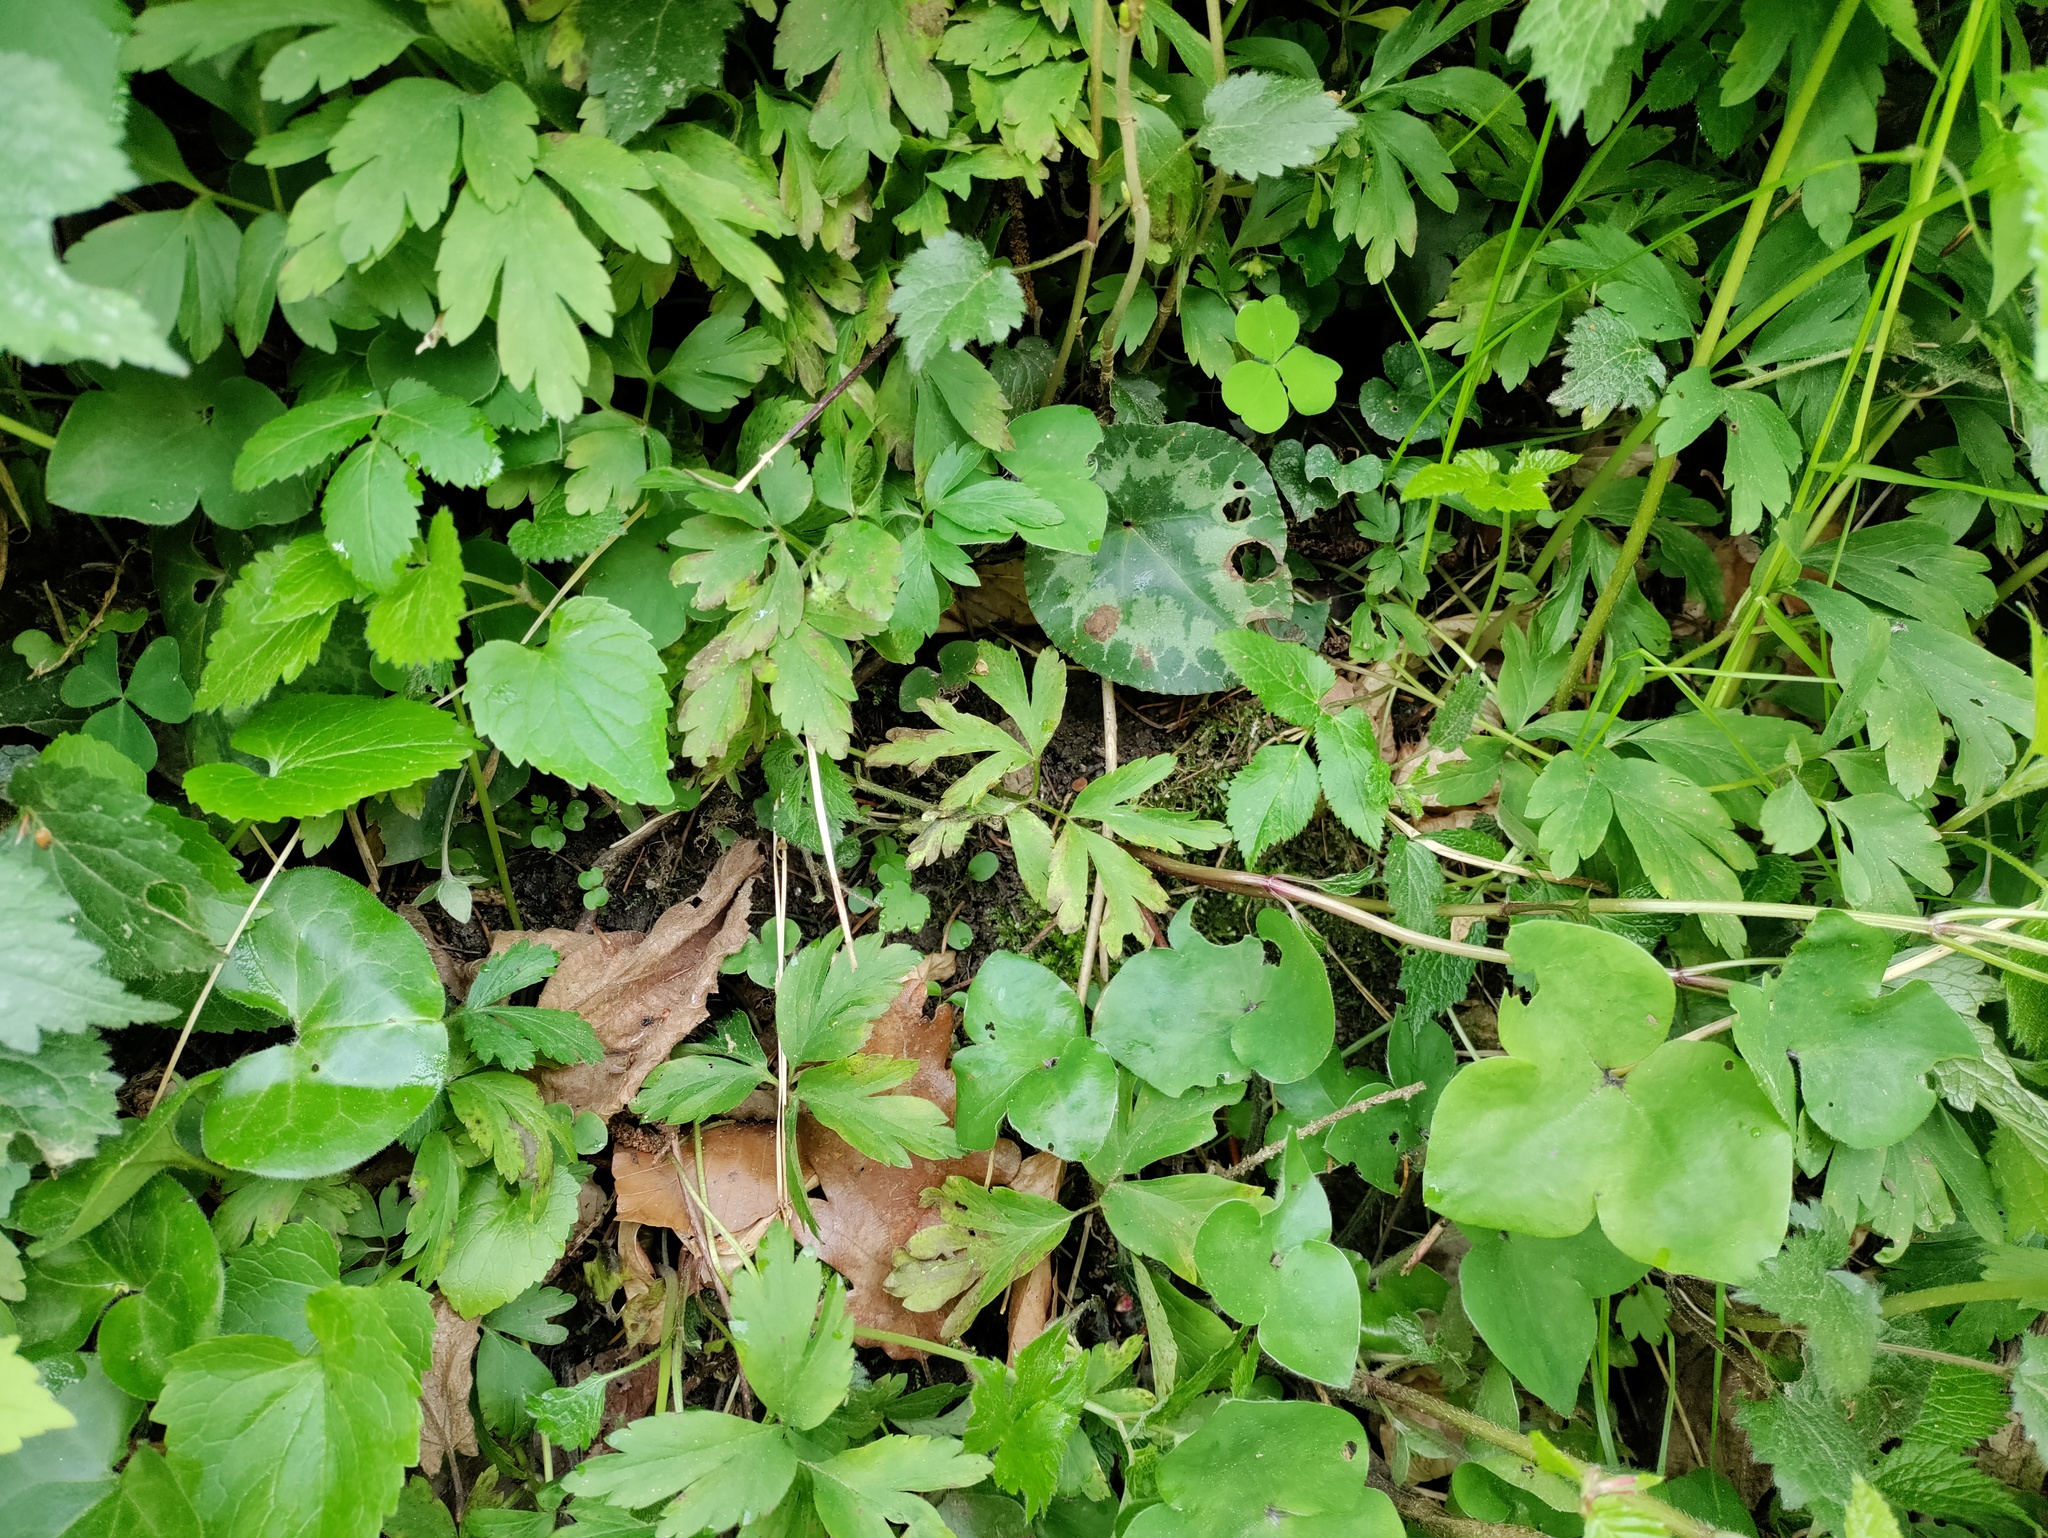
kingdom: Plantae
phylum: Tracheophyta
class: Magnoliopsida
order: Piperales
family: Aristolochiaceae
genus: Asarum
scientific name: Asarum europaeum
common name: Asarabacca
